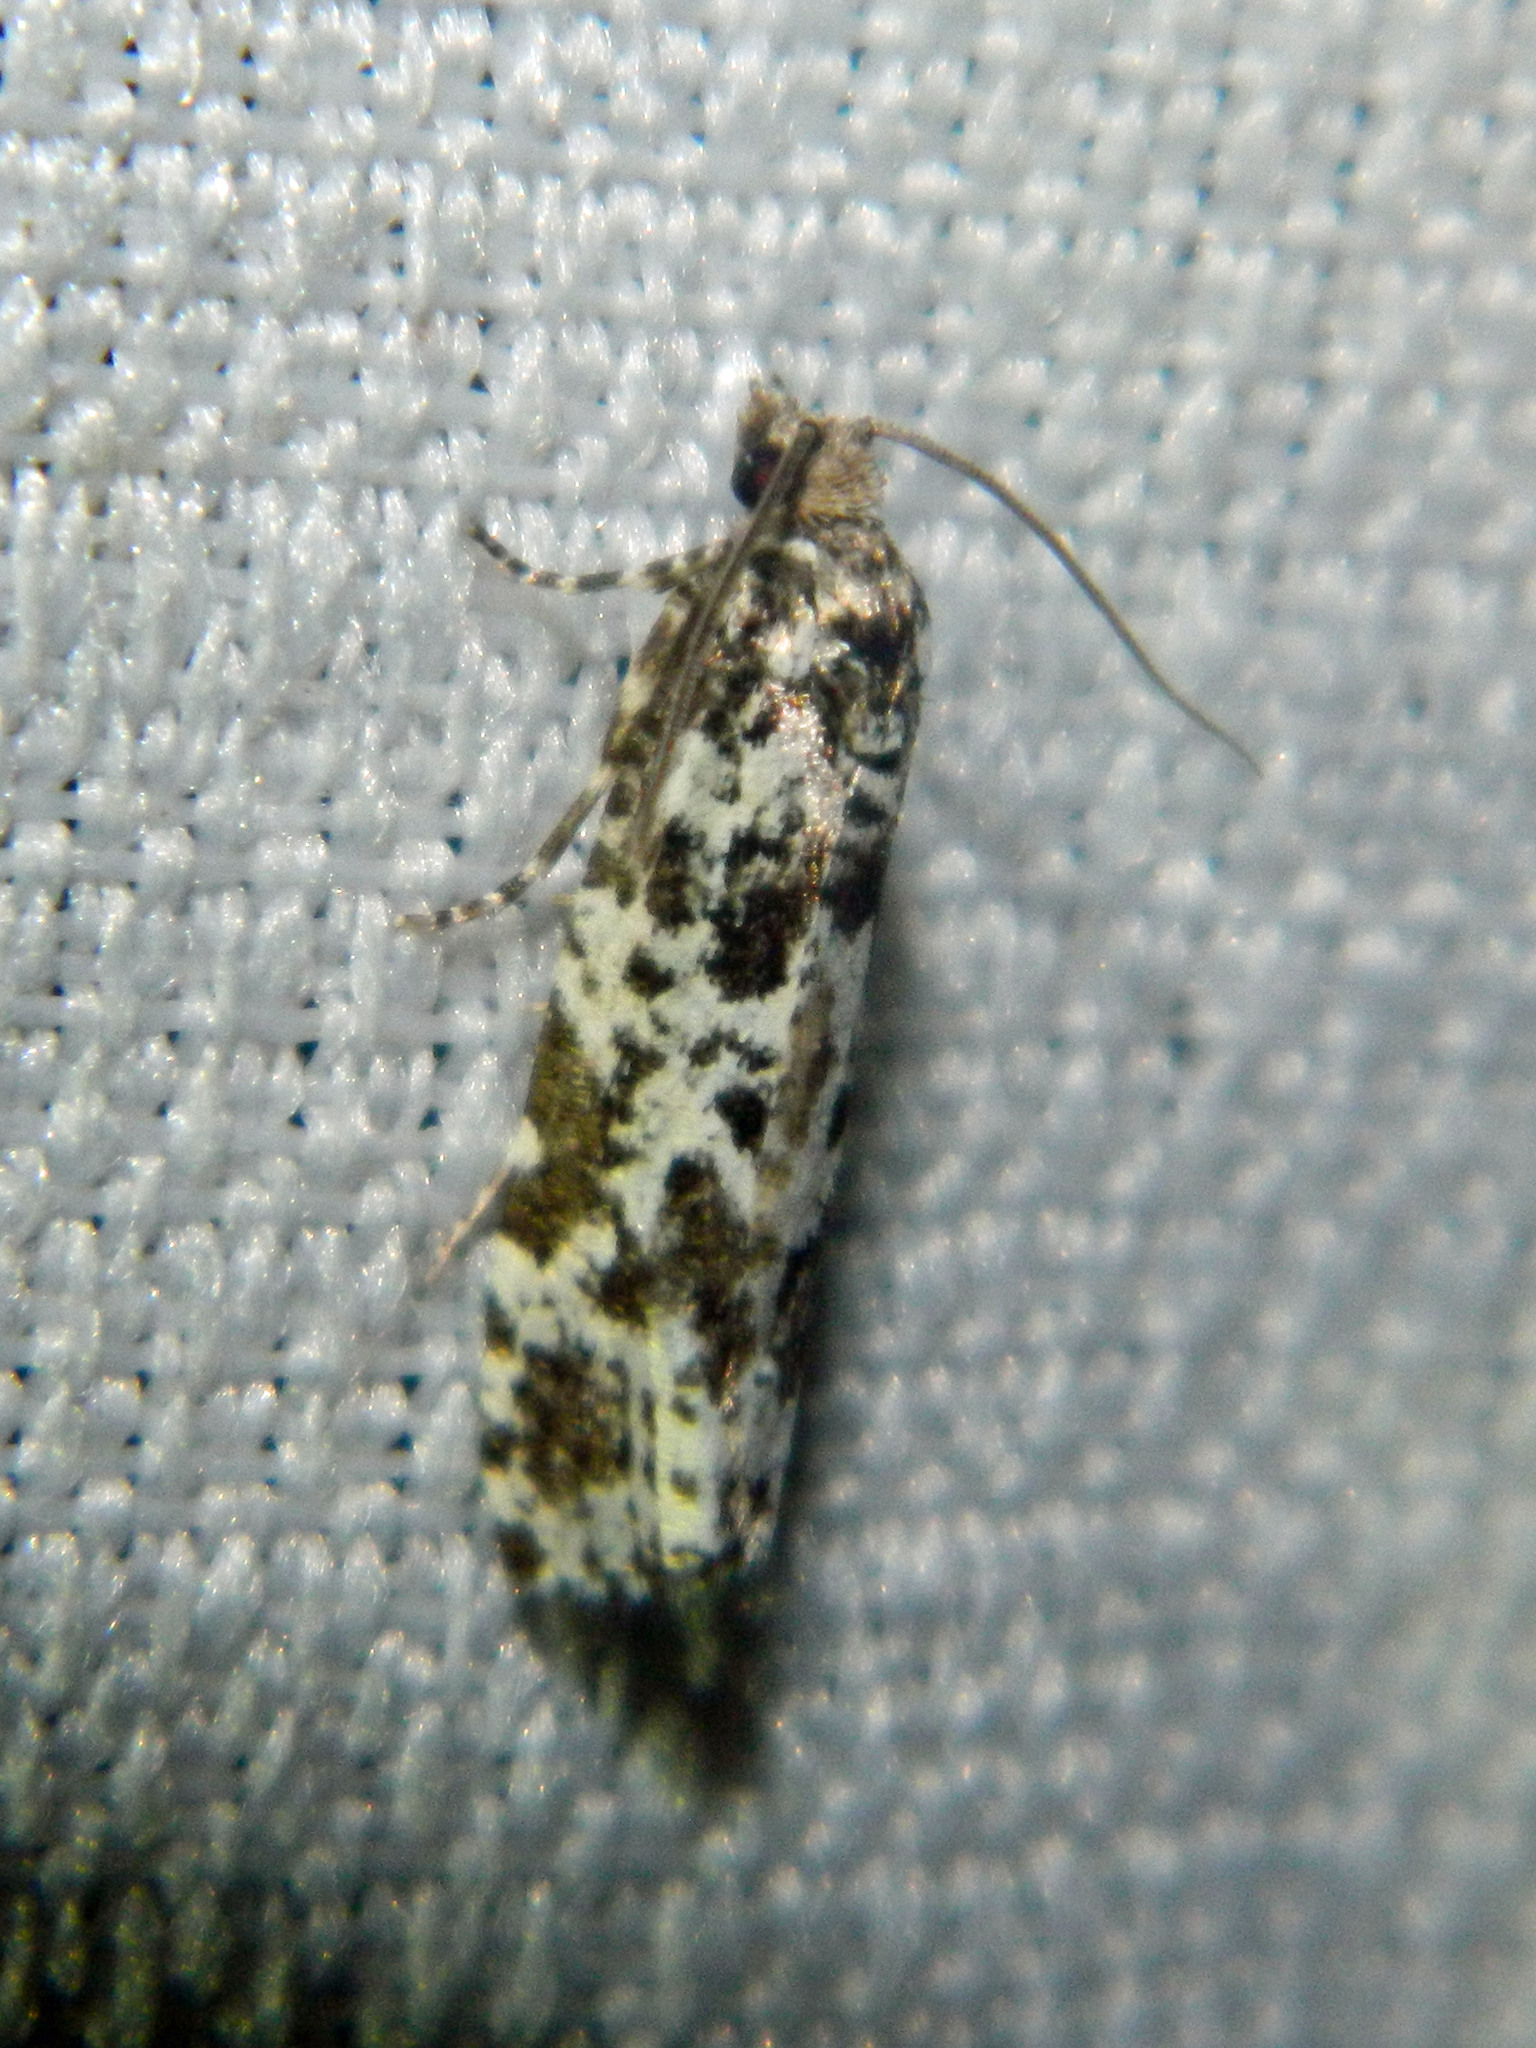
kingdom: Animalia
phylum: Arthropoda
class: Insecta
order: Lepidoptera
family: Tortricidae
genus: Retinia
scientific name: Retinia burkeana
